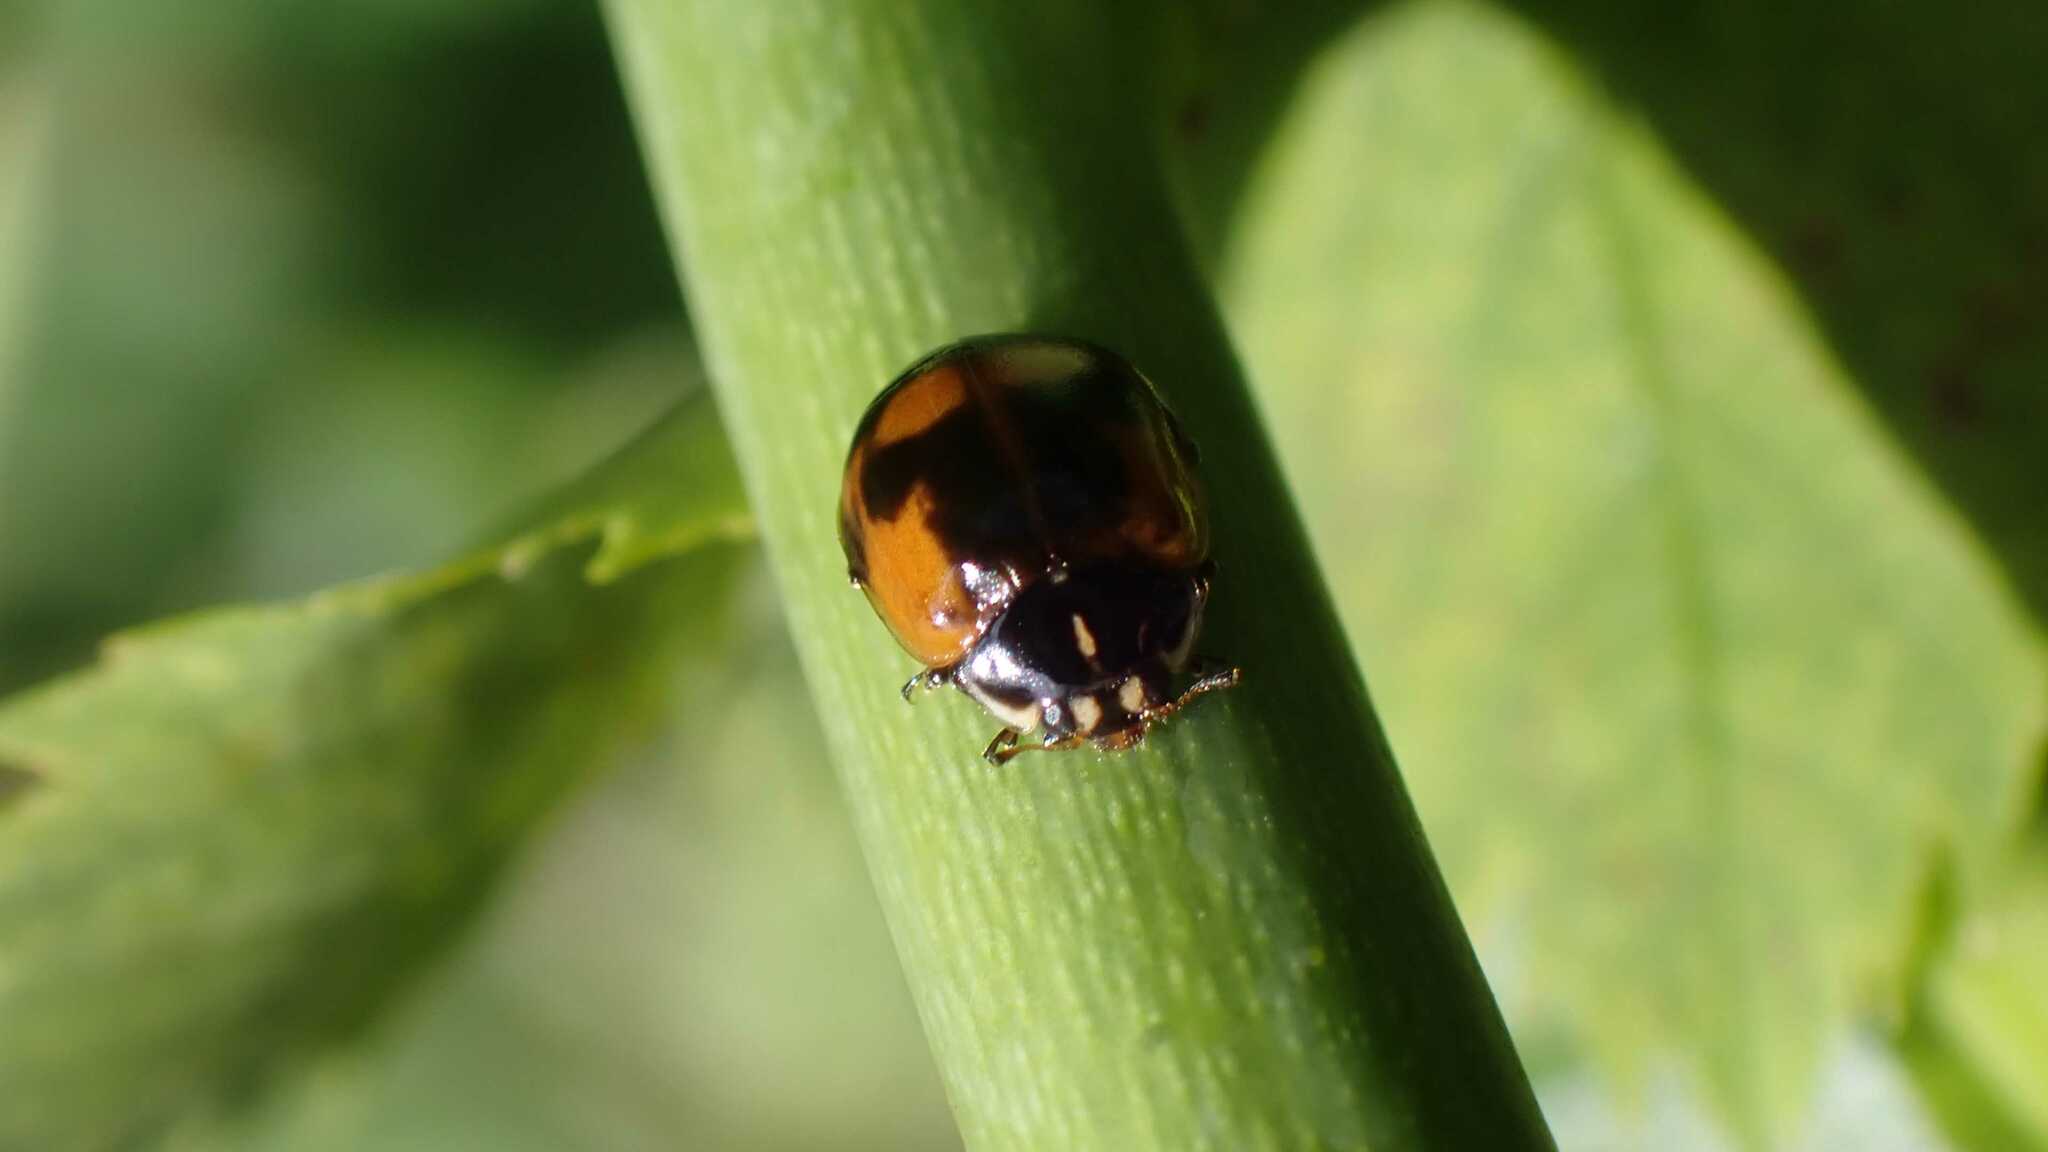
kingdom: Animalia
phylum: Arthropoda
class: Insecta
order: Coleoptera
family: Coccinellidae
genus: Adalia
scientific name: Adalia bipunctata
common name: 2-spot ladybird
